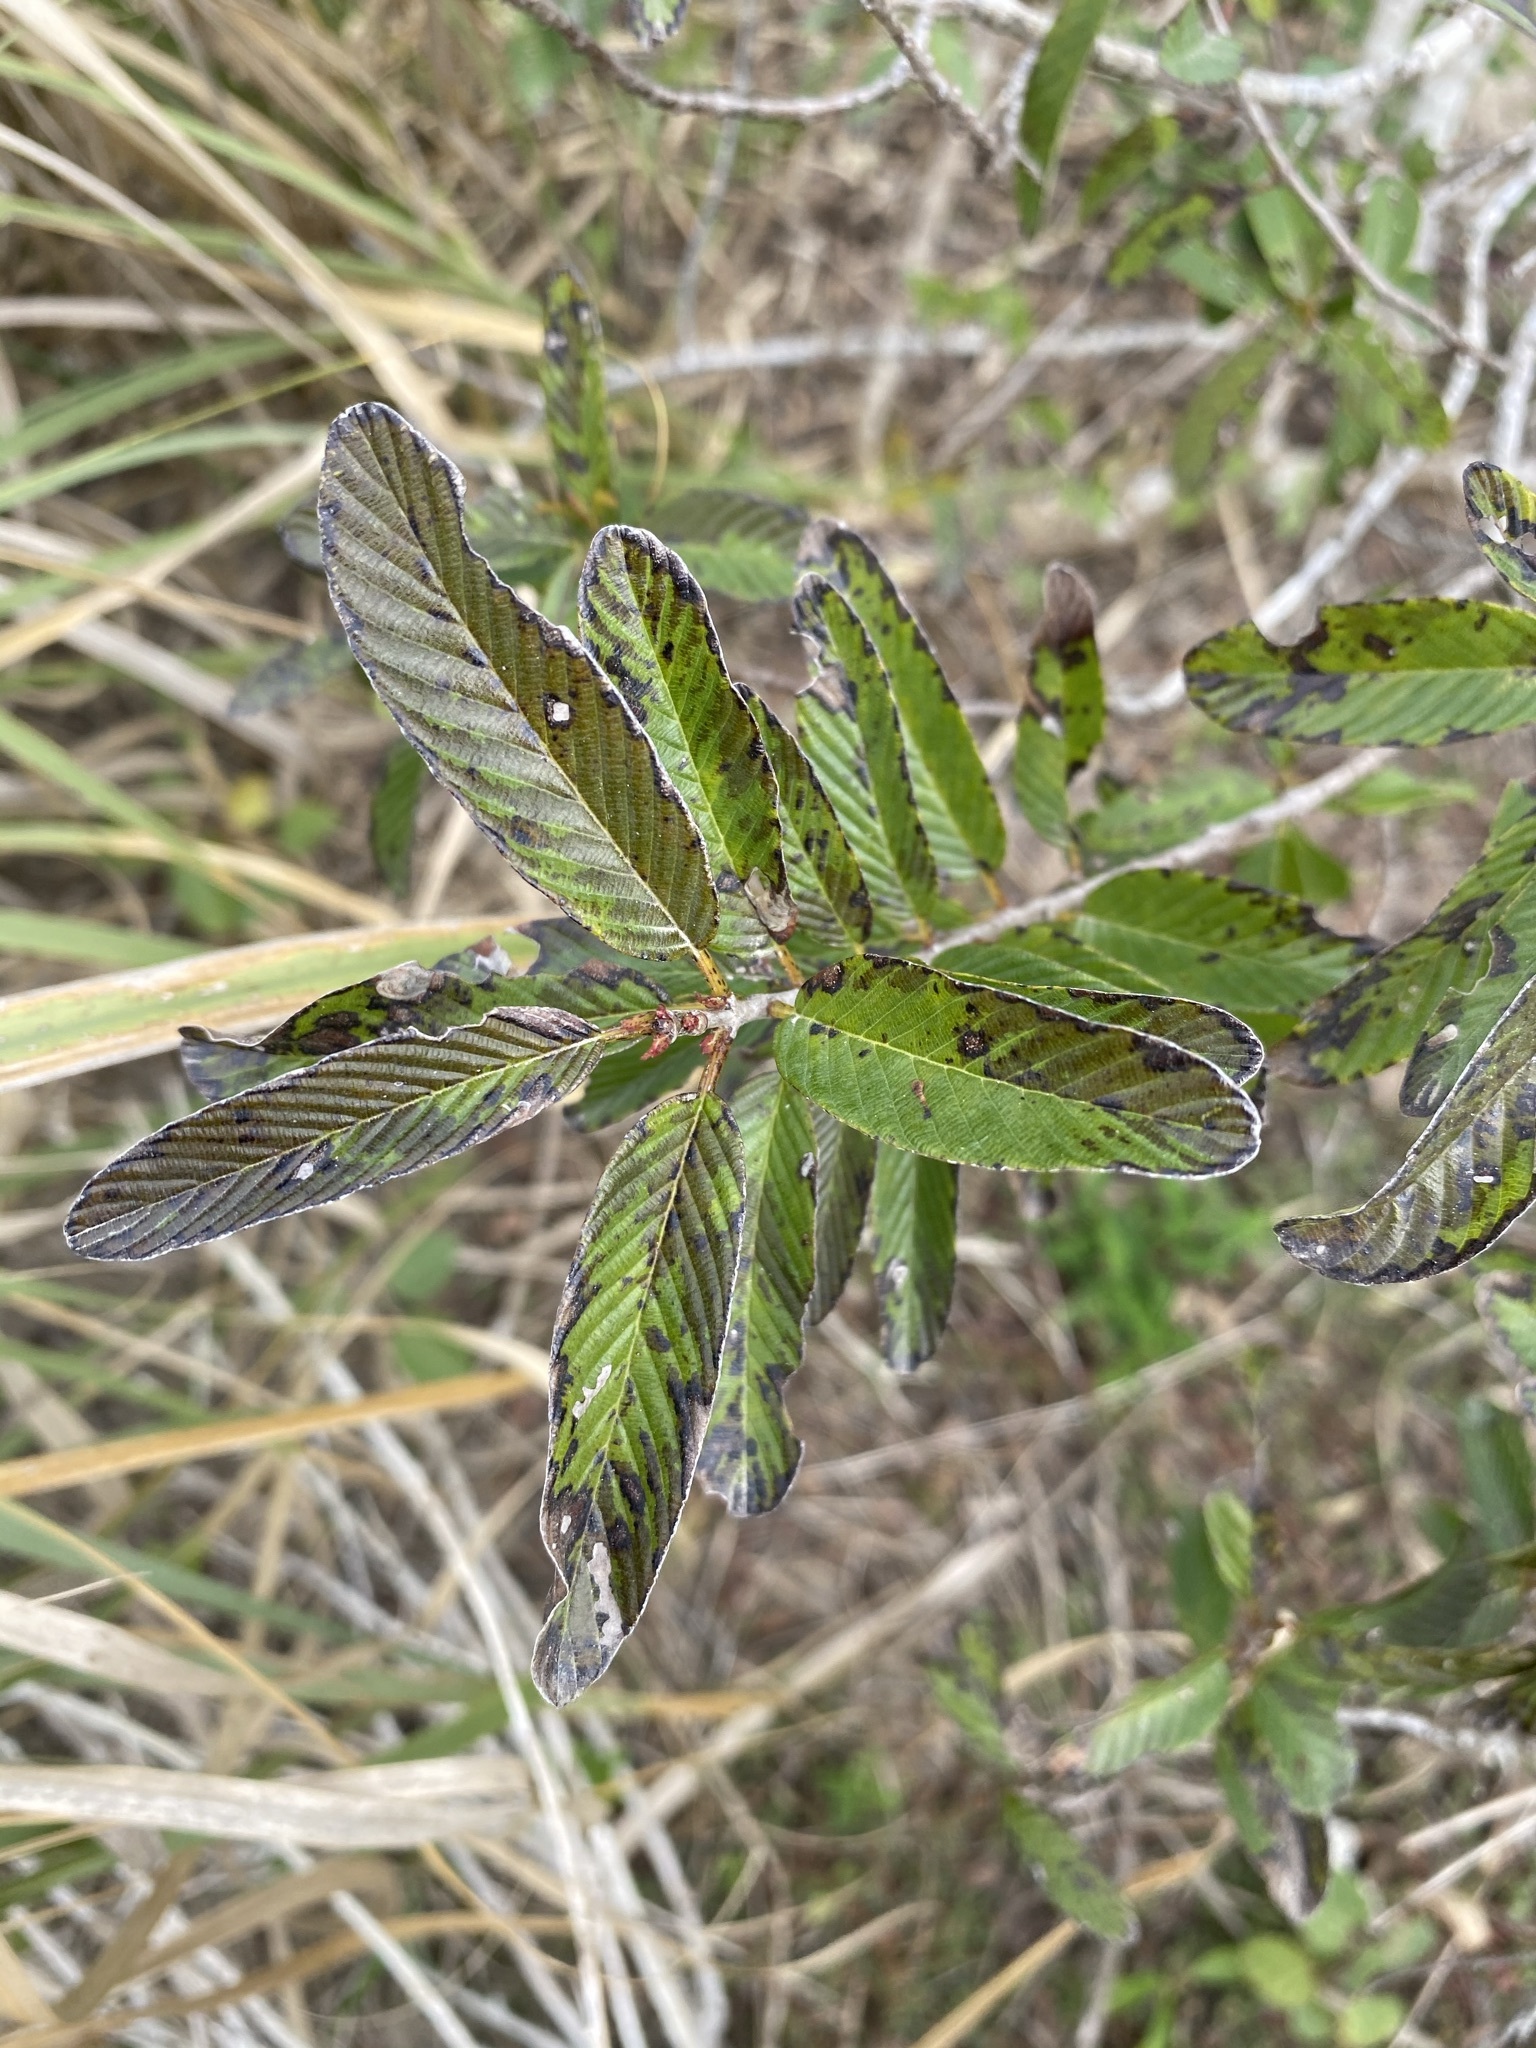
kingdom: Plantae
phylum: Tracheophyta
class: Magnoliopsida
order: Rosales
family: Rhamnaceae
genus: Karwinskia
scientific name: Karwinskia humboldtiana
